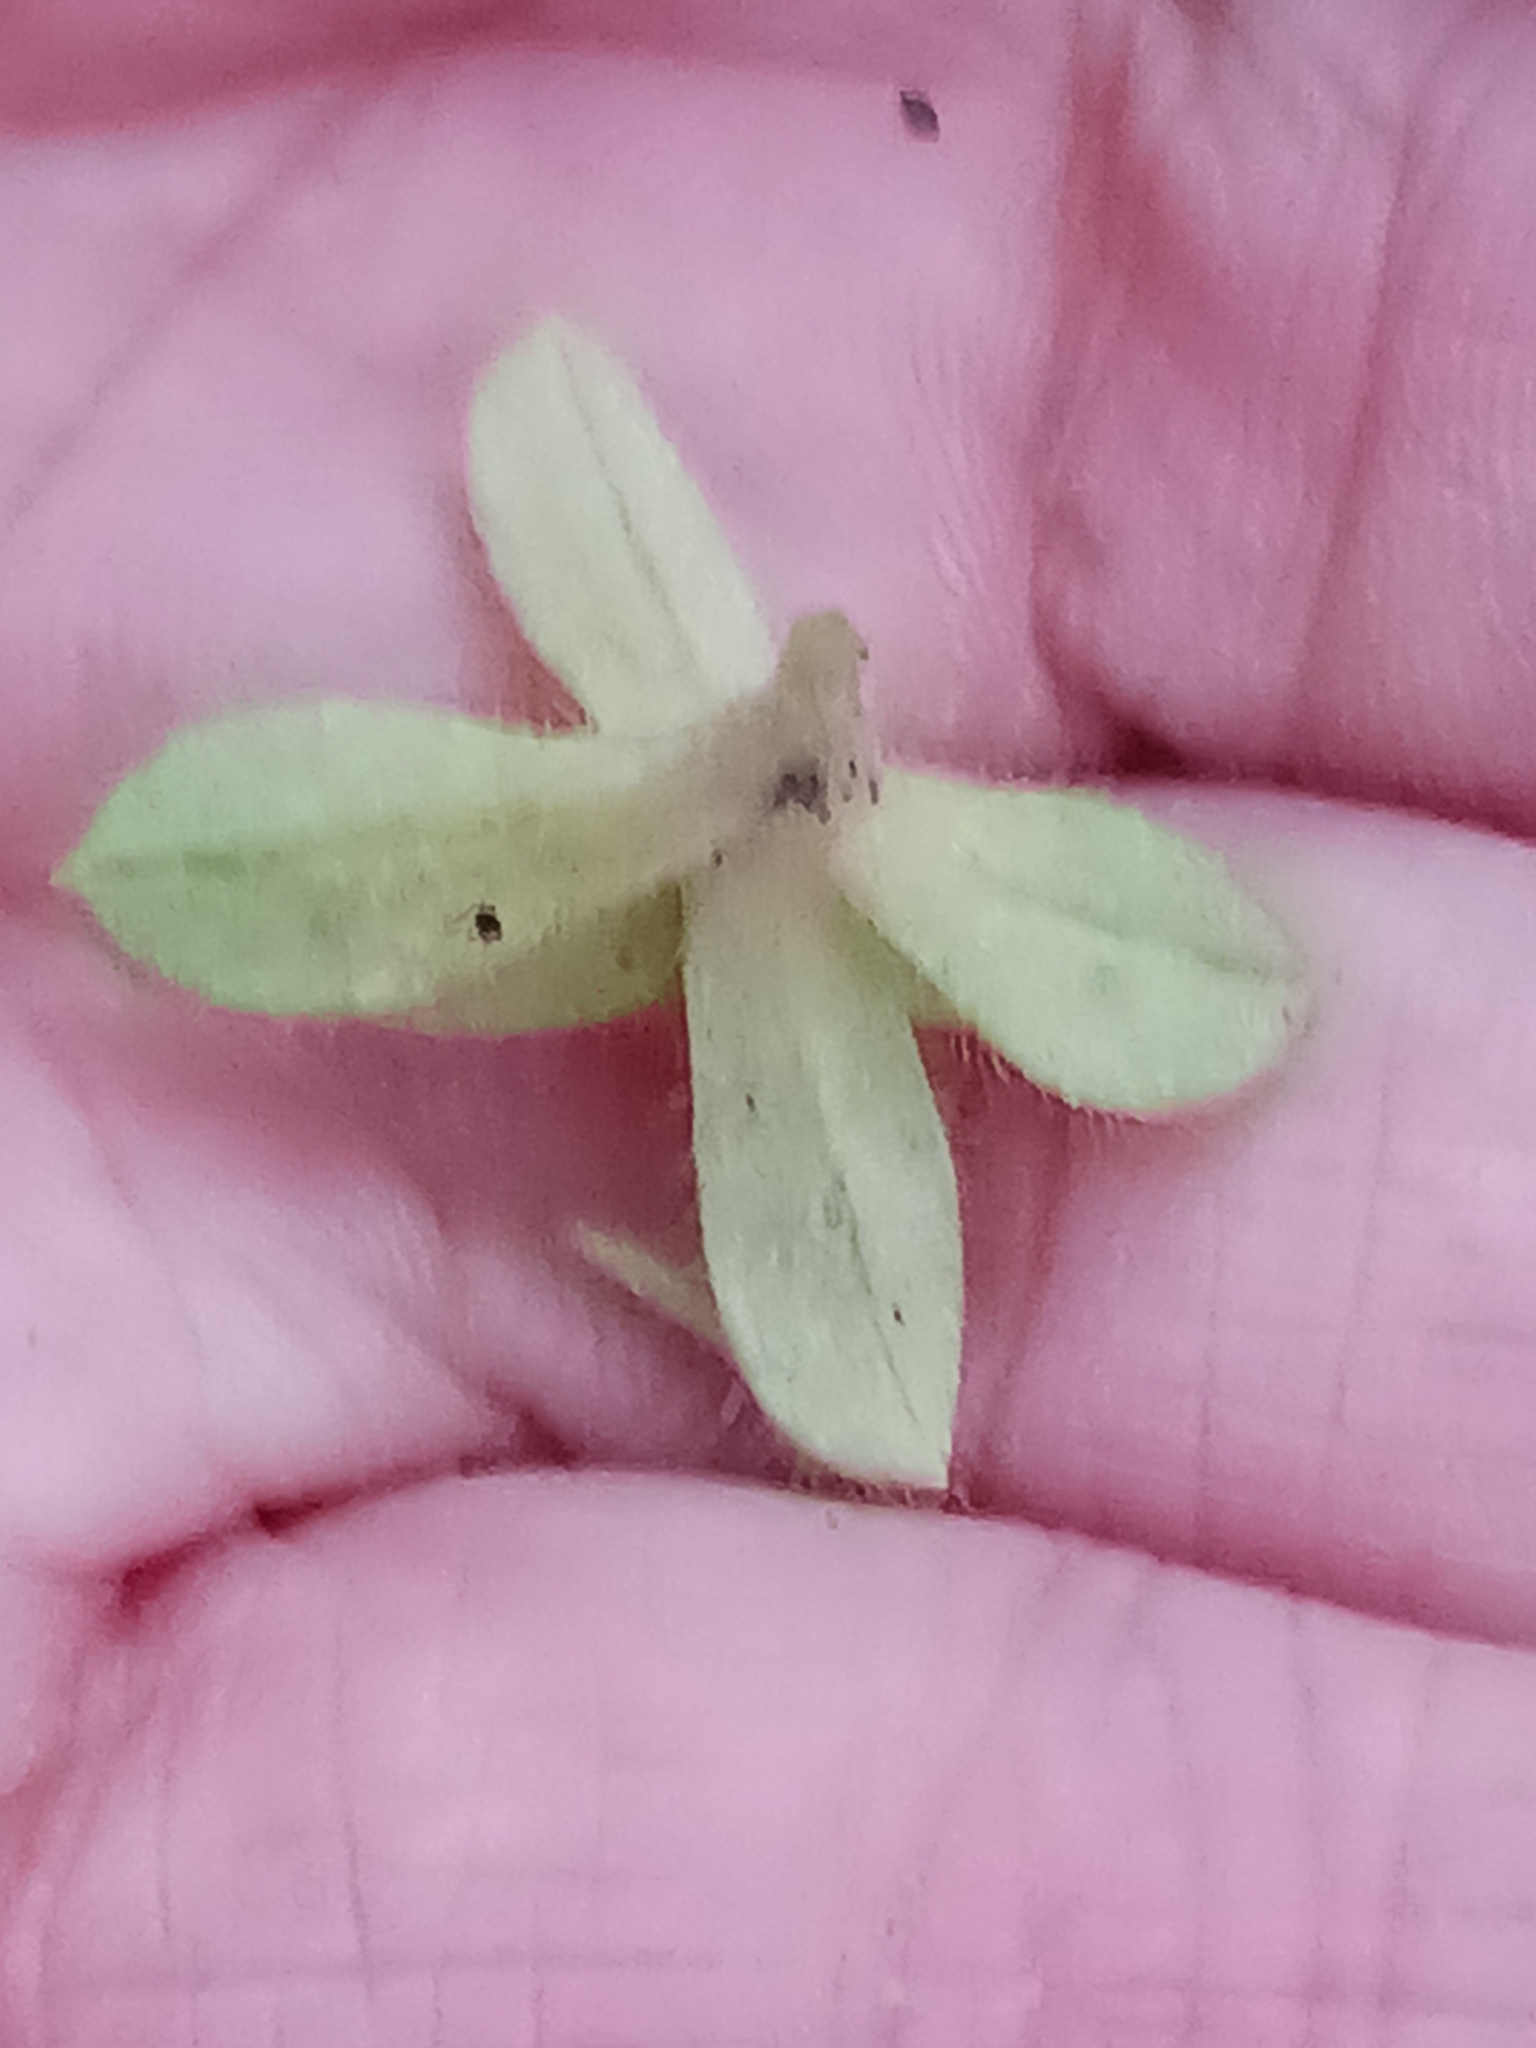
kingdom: Chromista
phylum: Oomycota
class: Peronosporea
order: Peronosporales
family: Peronosporaceae
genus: Peronospora
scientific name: Peronospora conferta
